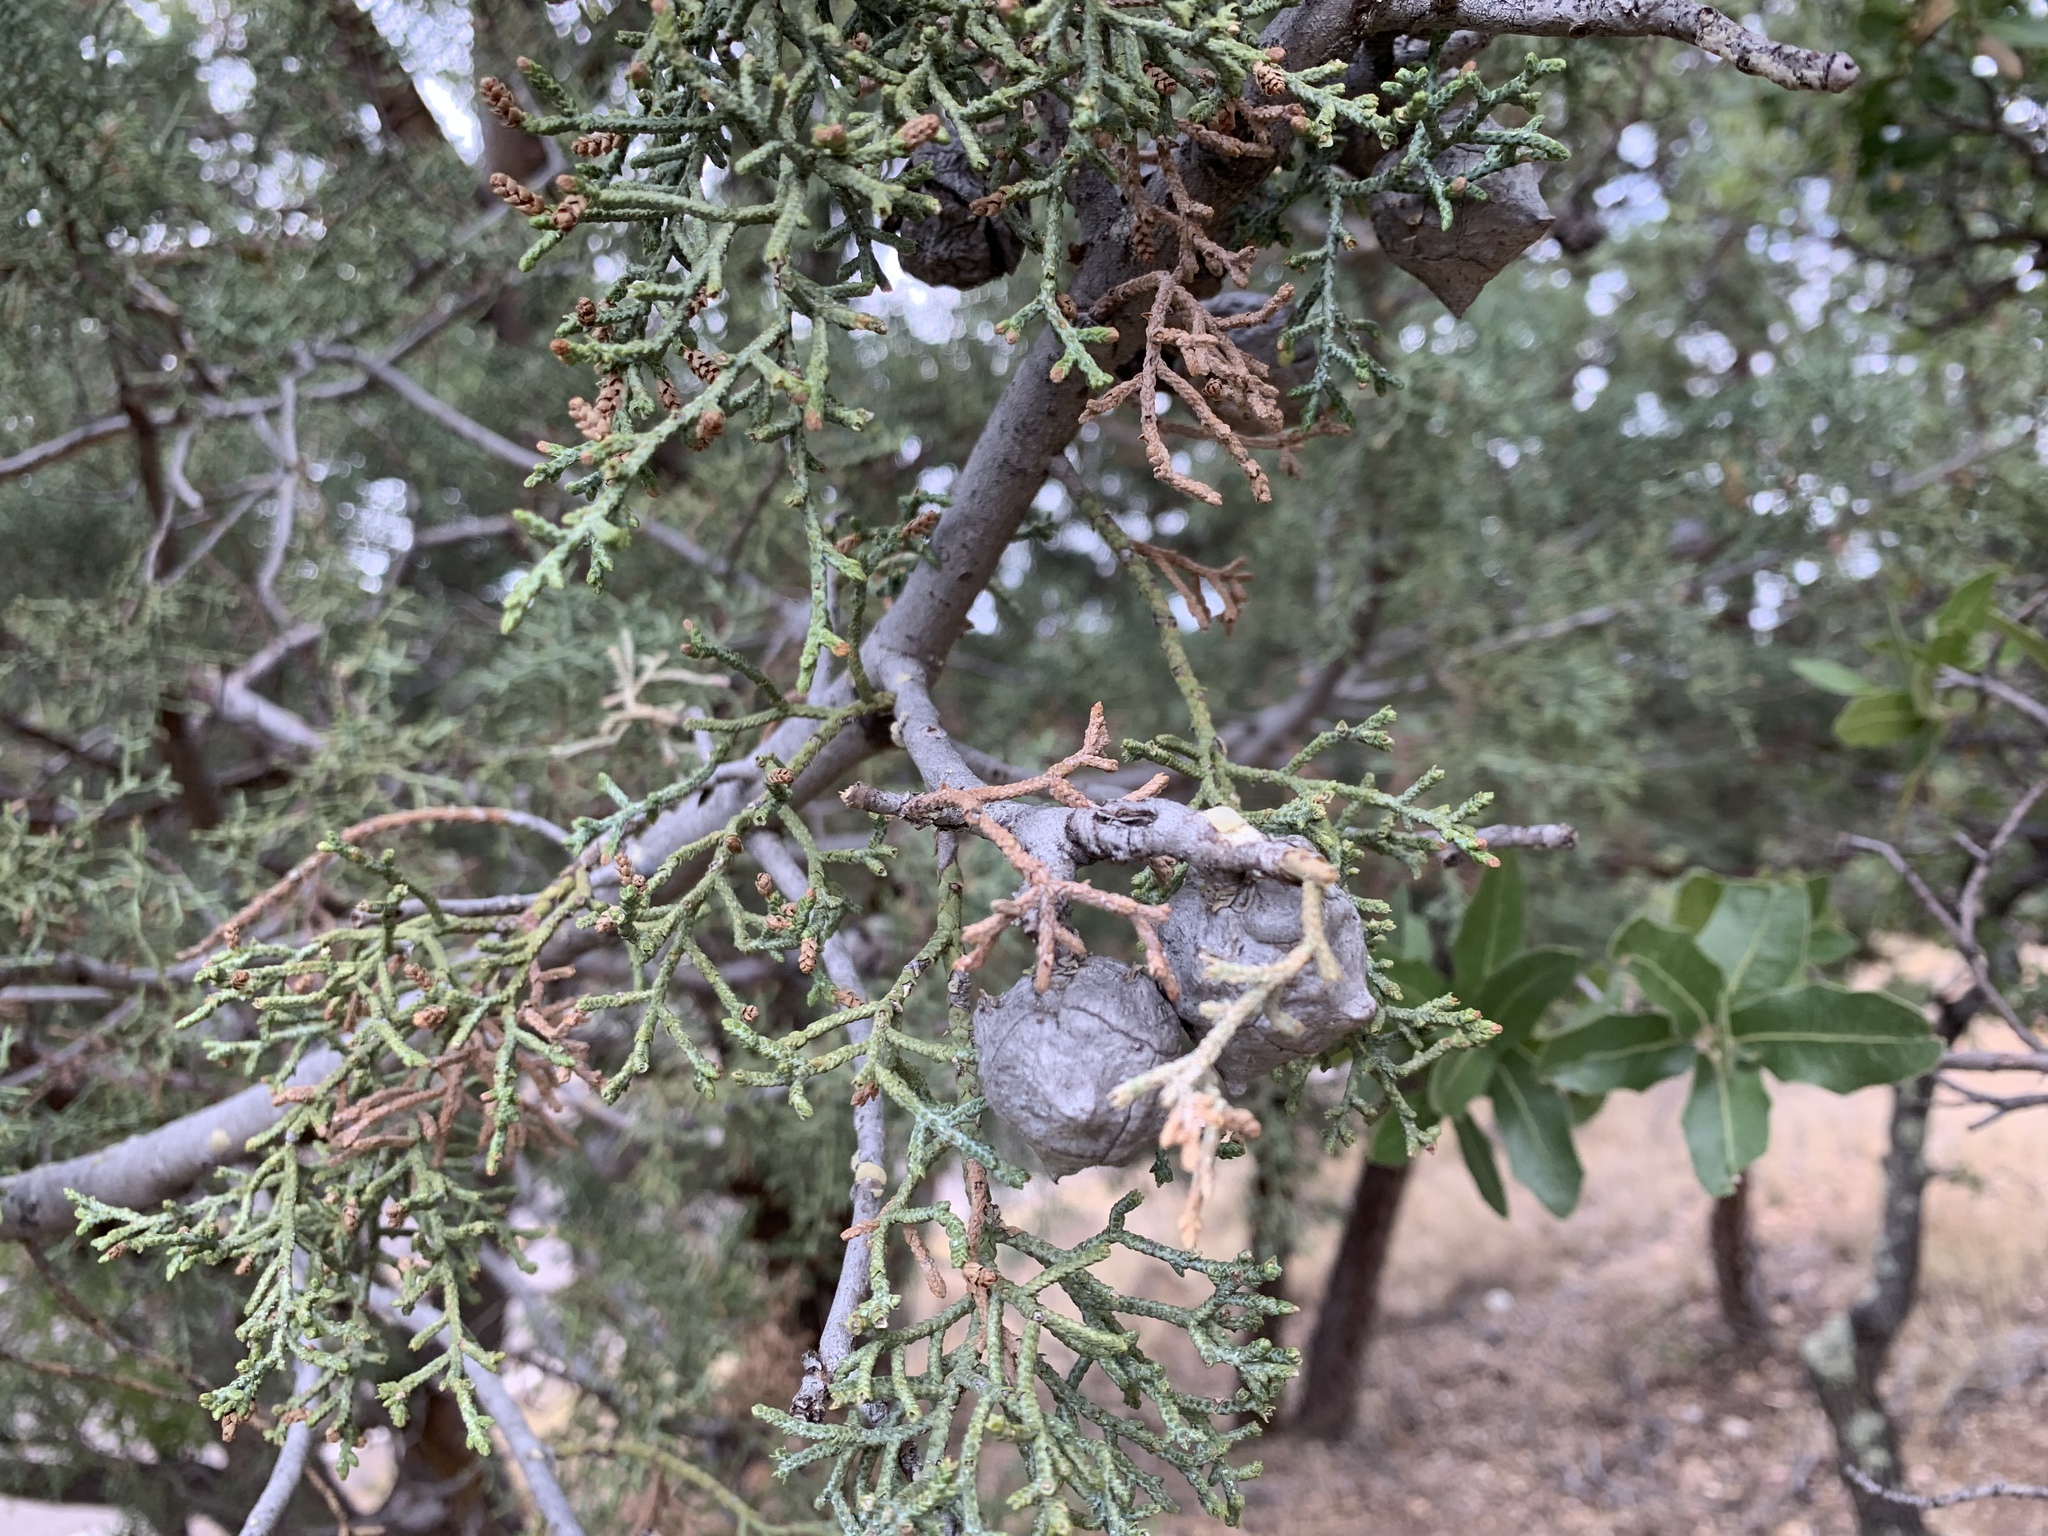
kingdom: Plantae
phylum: Tracheophyta
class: Pinopsida
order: Pinales
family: Cupressaceae
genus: Cupressus
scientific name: Cupressus arizonica
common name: Arizona cypress
